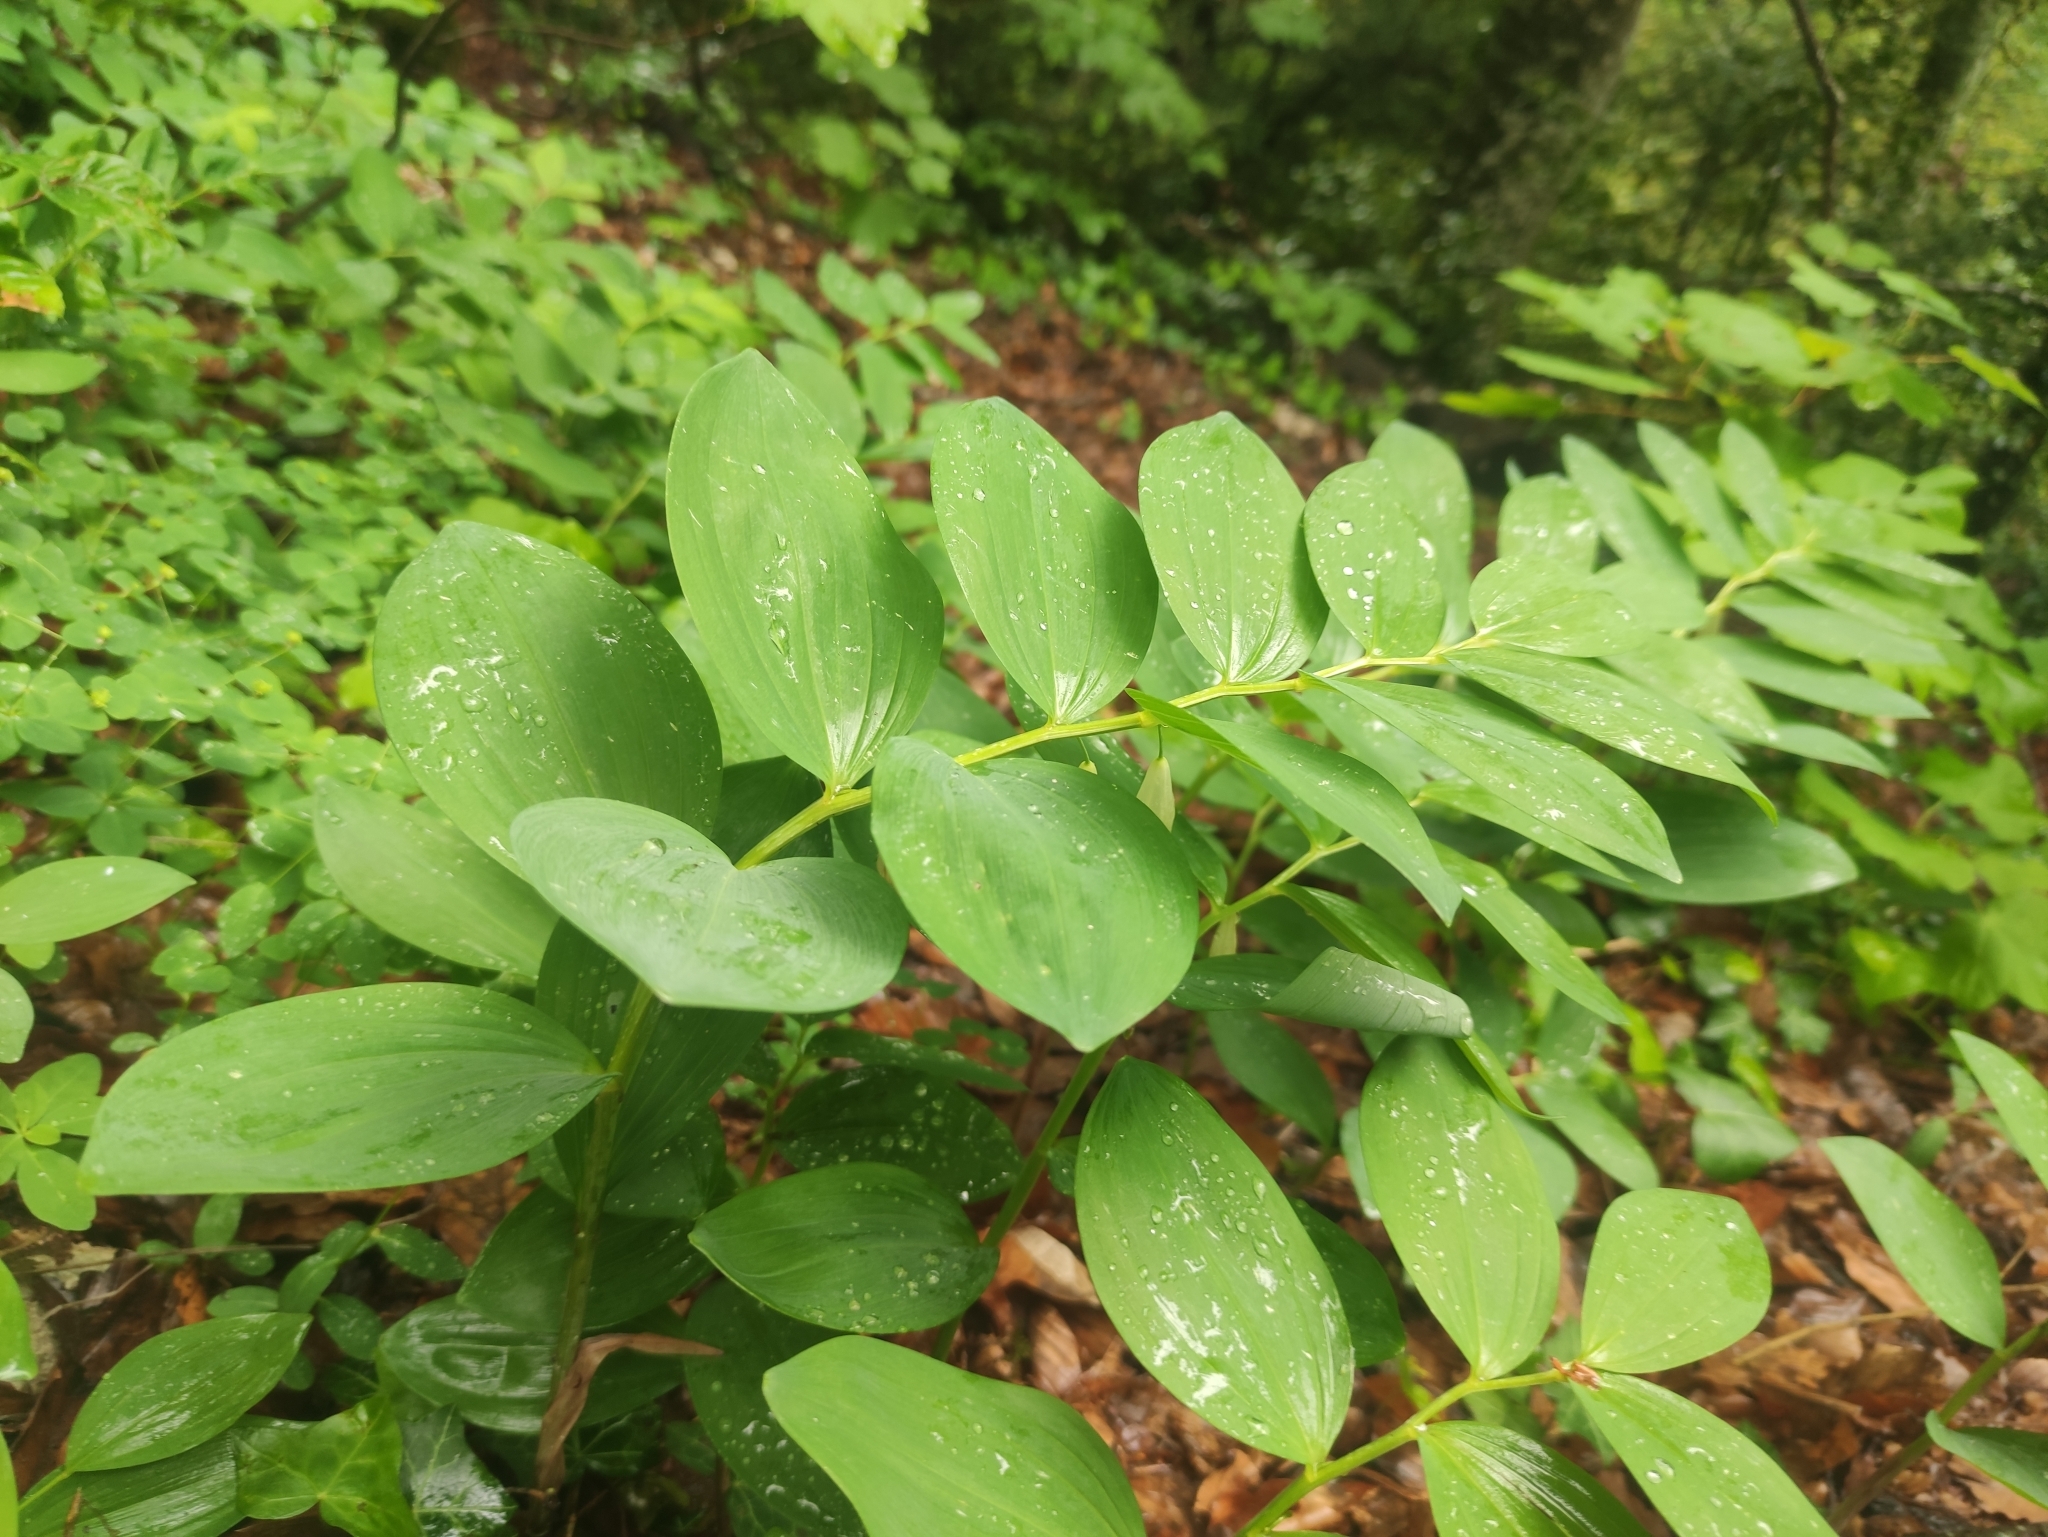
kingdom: Plantae
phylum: Tracheophyta
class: Liliopsida
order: Asparagales
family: Asparagaceae
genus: Polygonatum
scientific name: Polygonatum odoratum
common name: Angular solomon's-seal
